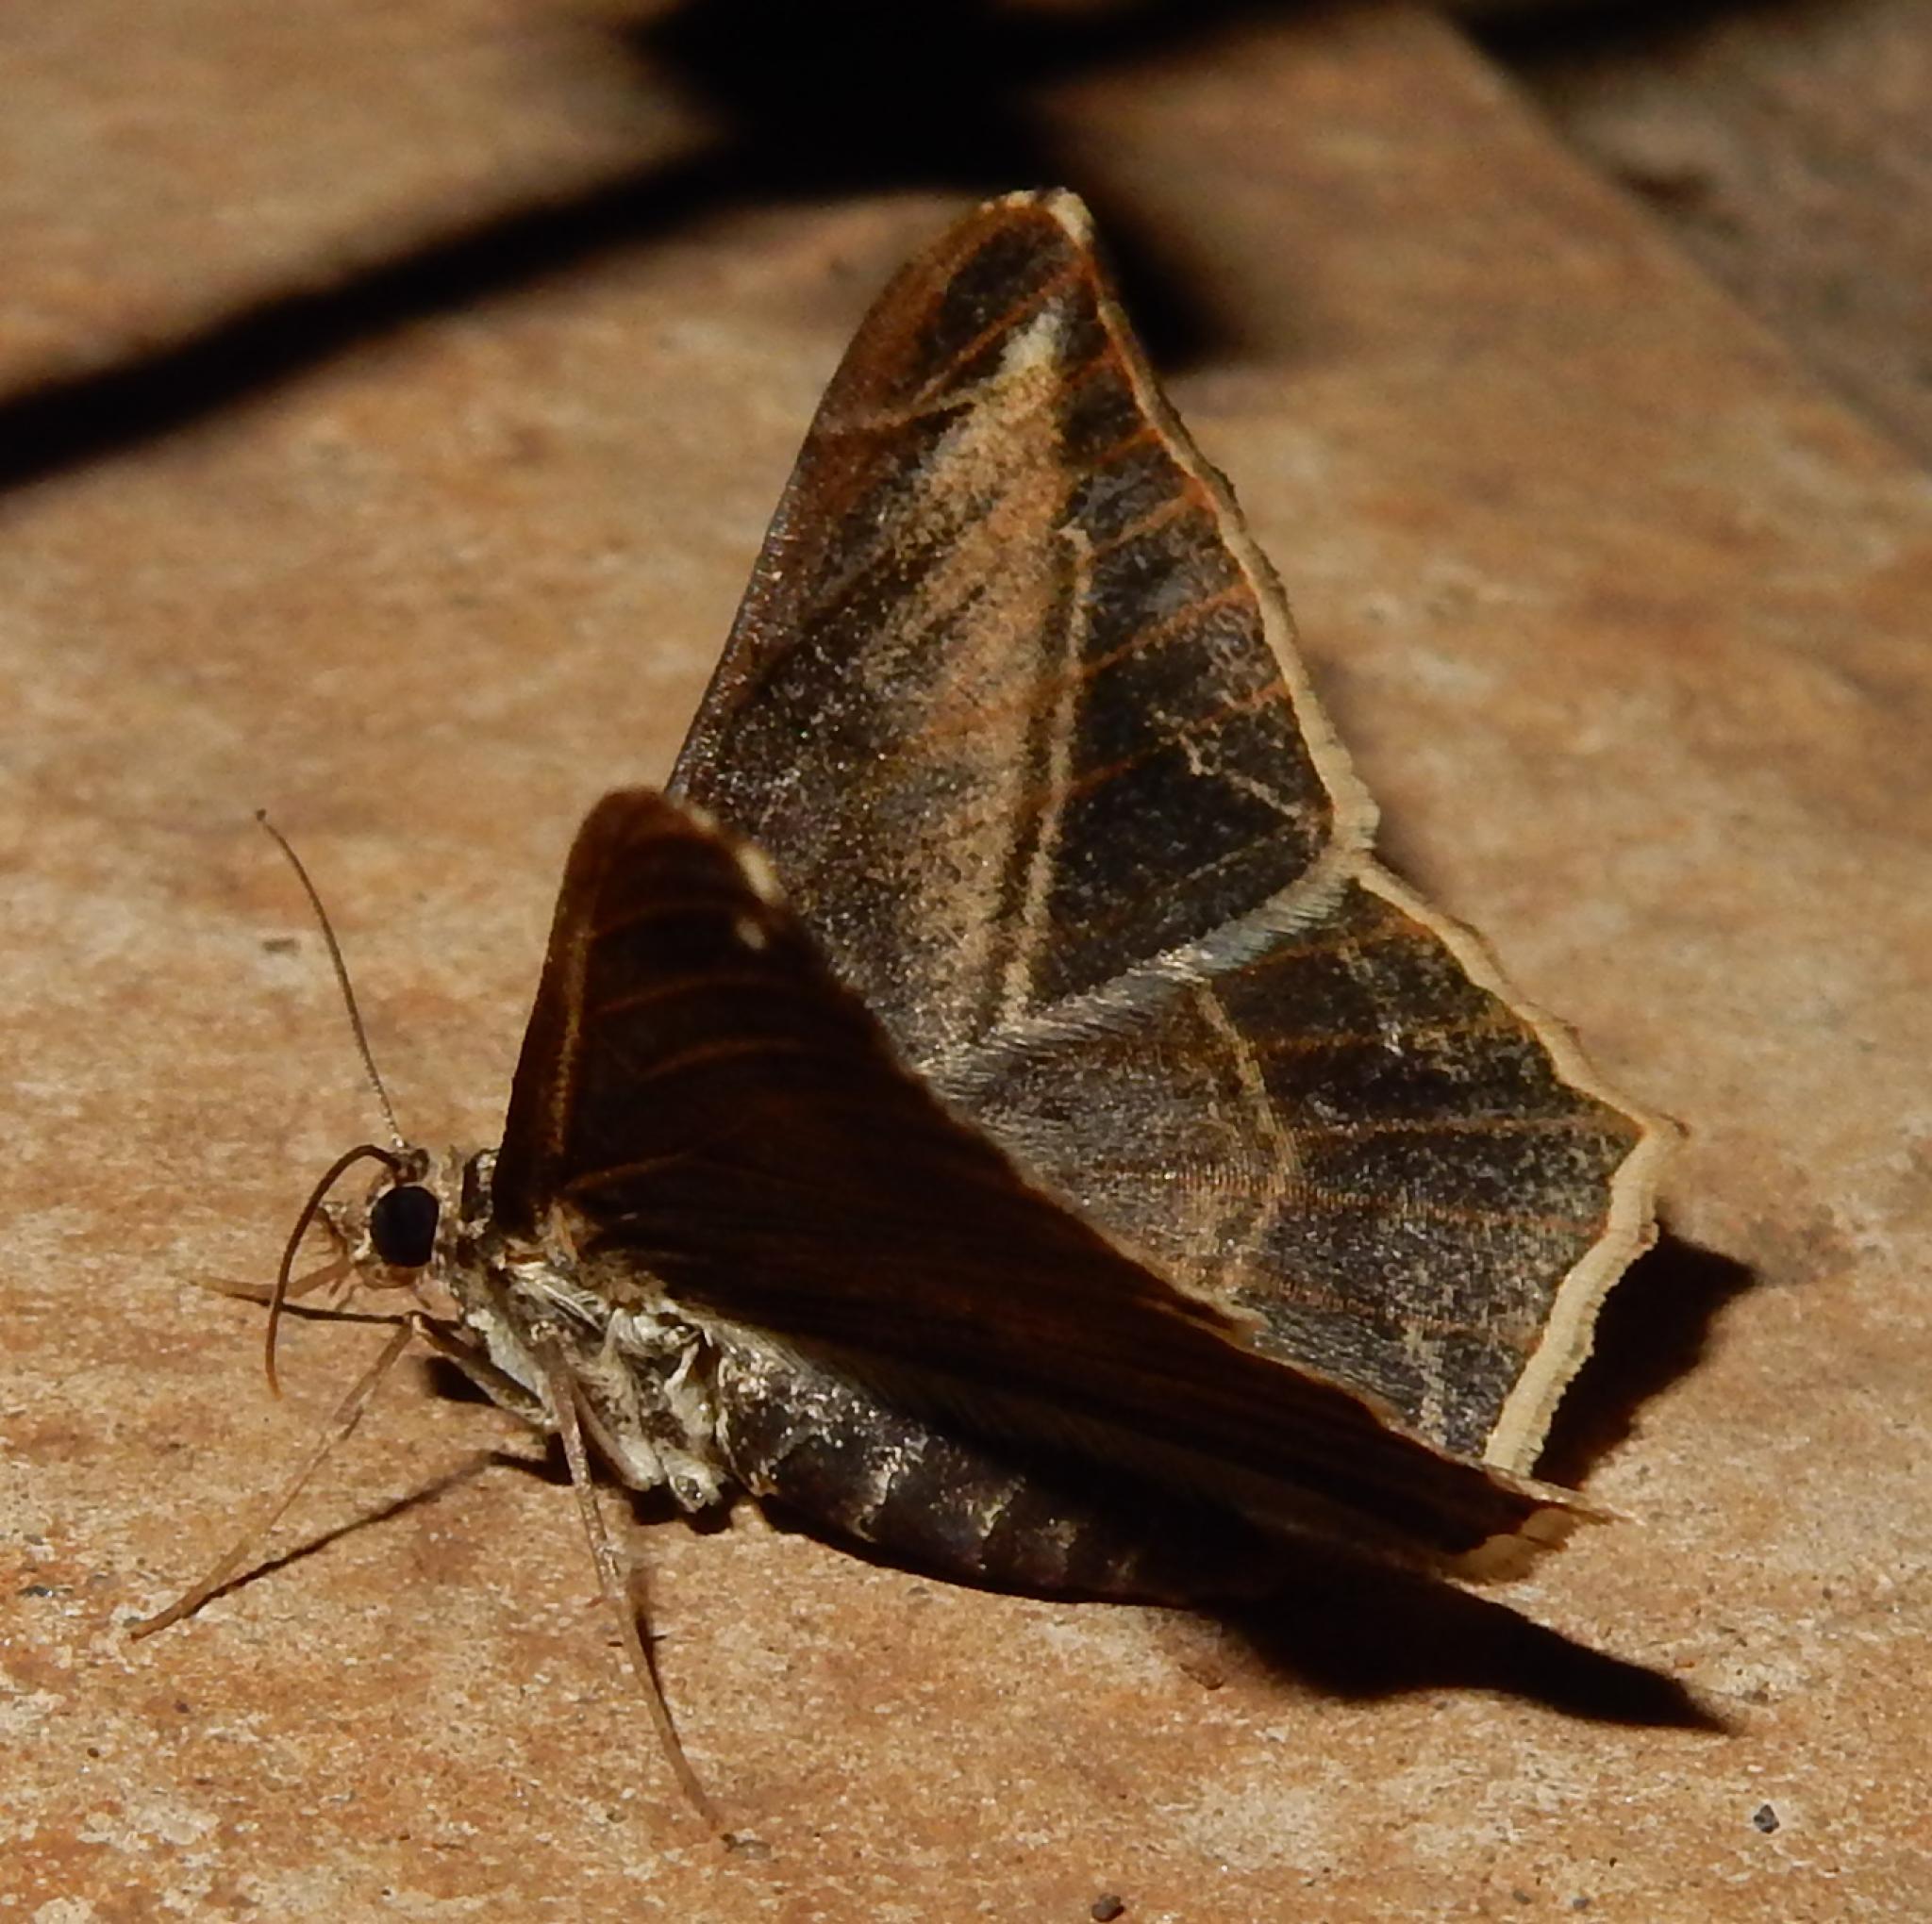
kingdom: Animalia
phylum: Arthropoda
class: Insecta
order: Lepidoptera
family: Geometridae
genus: Chiasmia
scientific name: Chiasmia simplicilinea
